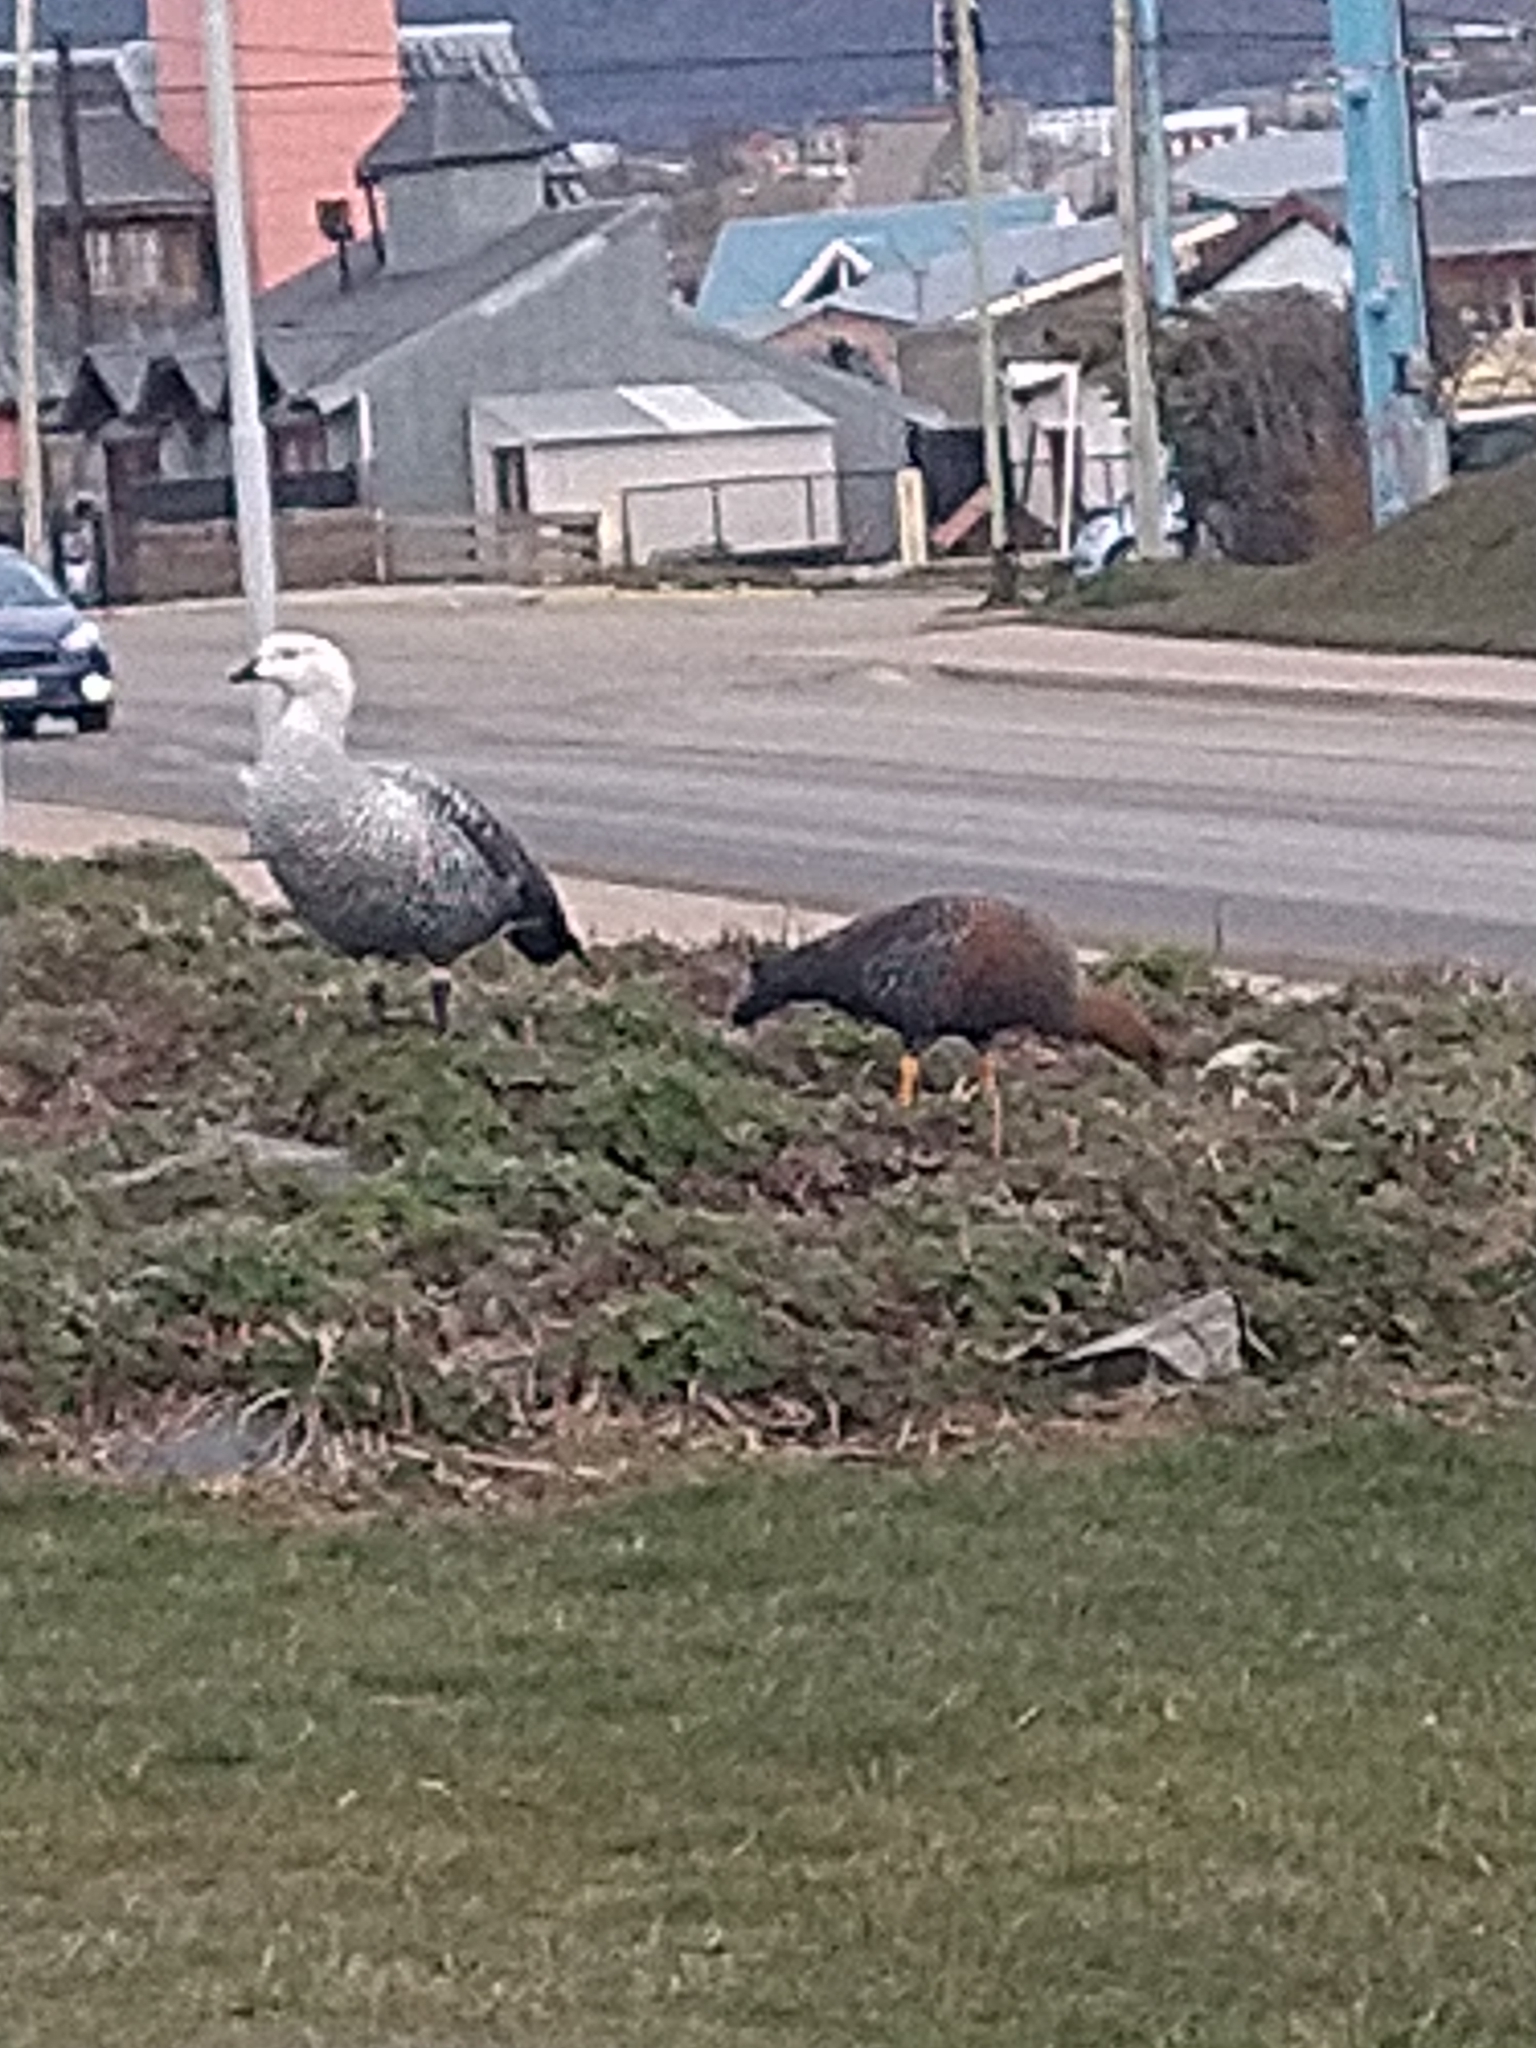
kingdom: Animalia
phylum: Chordata
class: Aves
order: Anseriformes
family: Anatidae
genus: Chloephaga
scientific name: Chloephaga picta
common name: Upland goose
